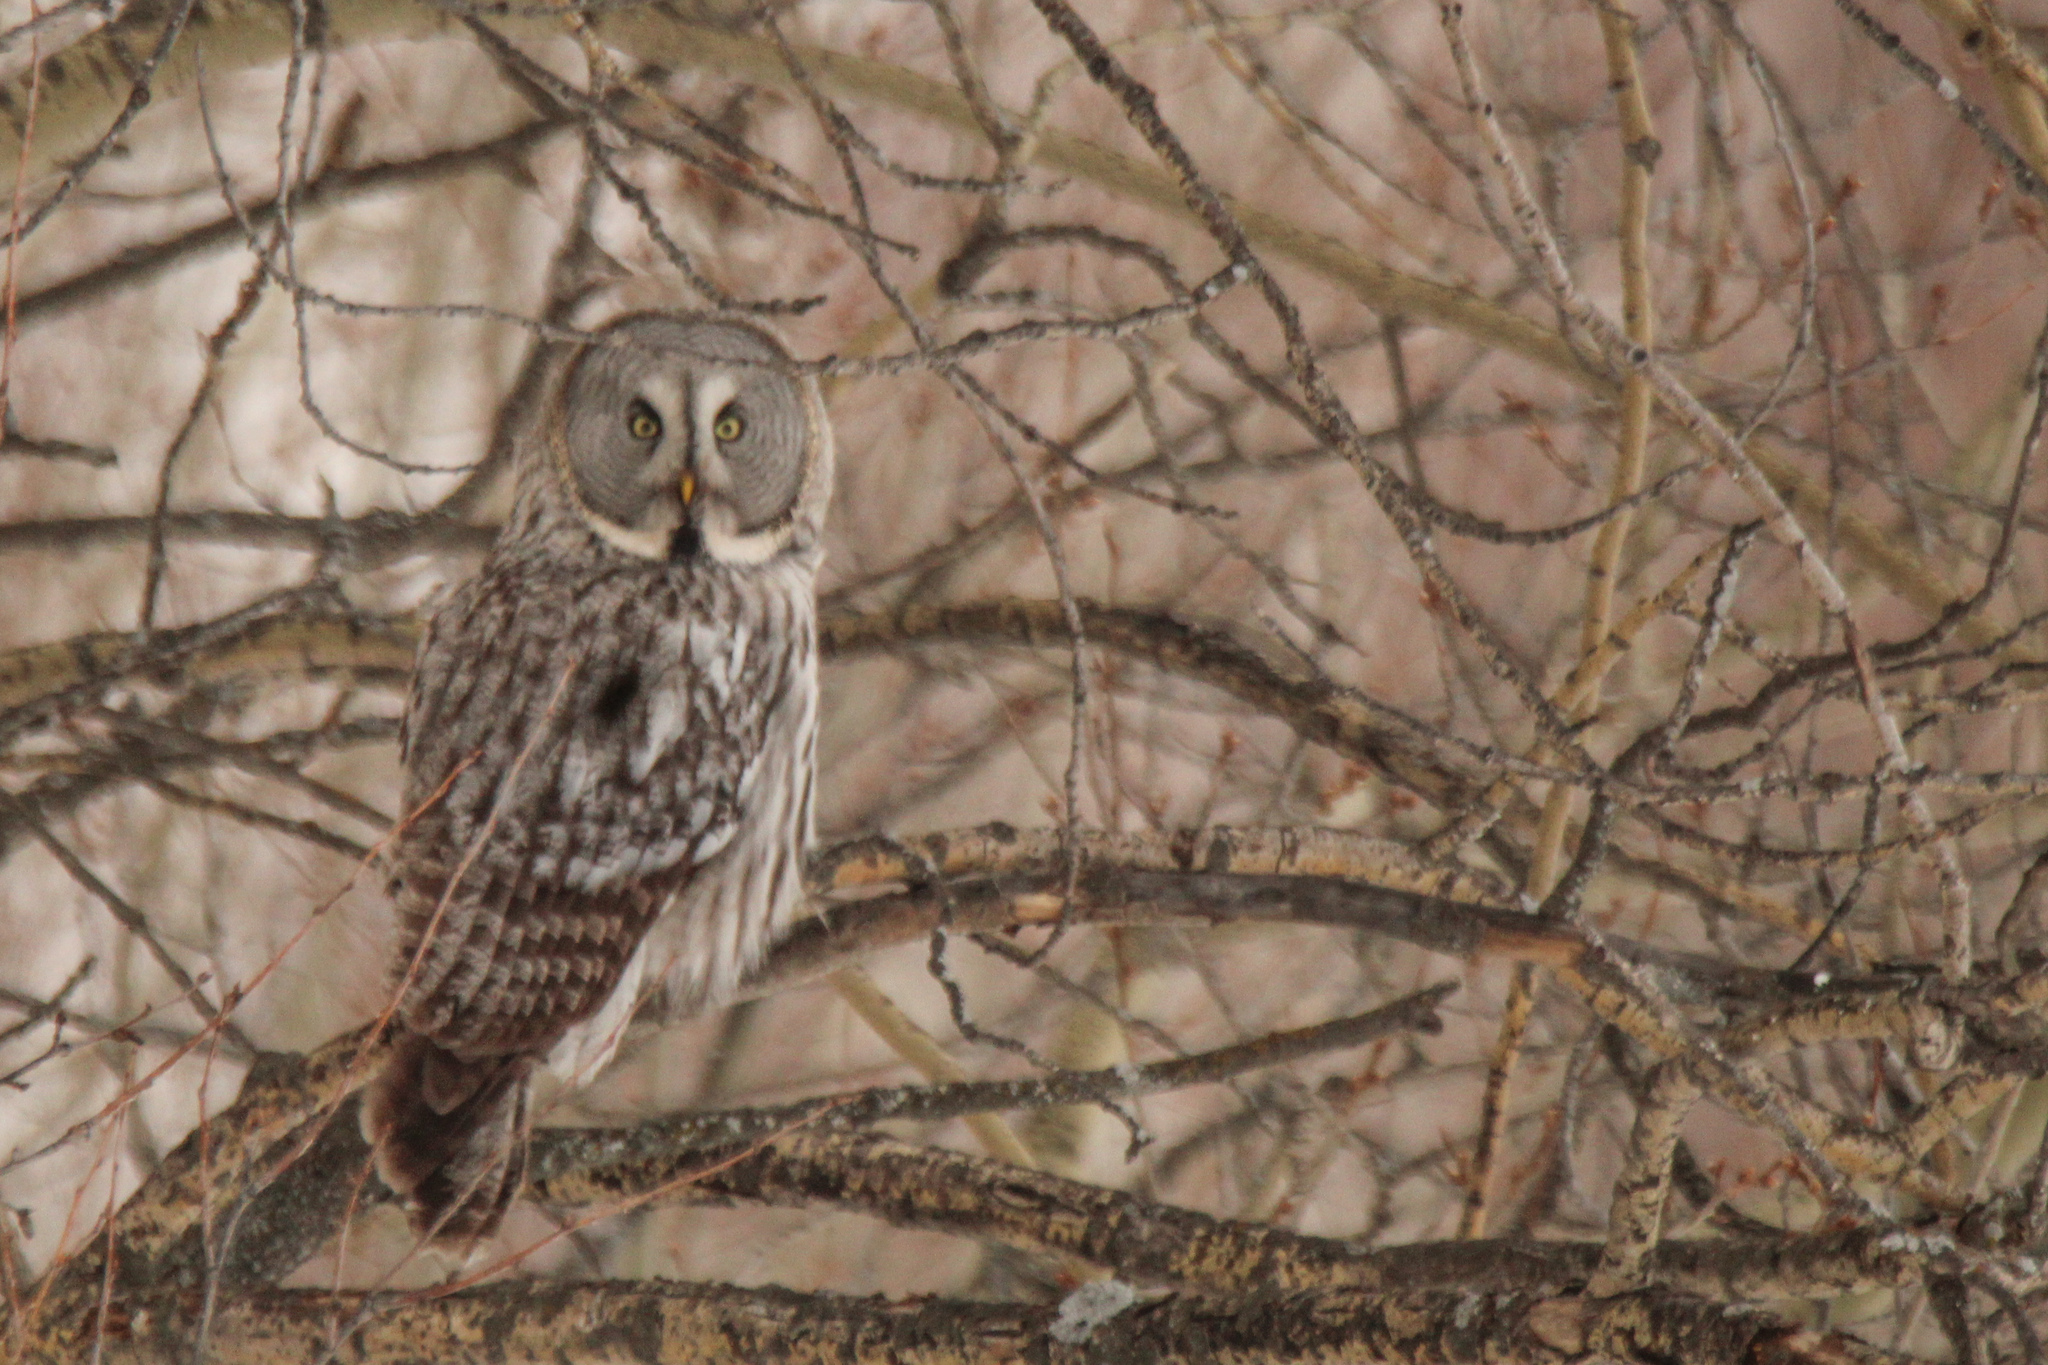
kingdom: Animalia
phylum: Chordata
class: Aves
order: Strigiformes
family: Strigidae
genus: Strix
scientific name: Strix nebulosa
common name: Great grey owl
